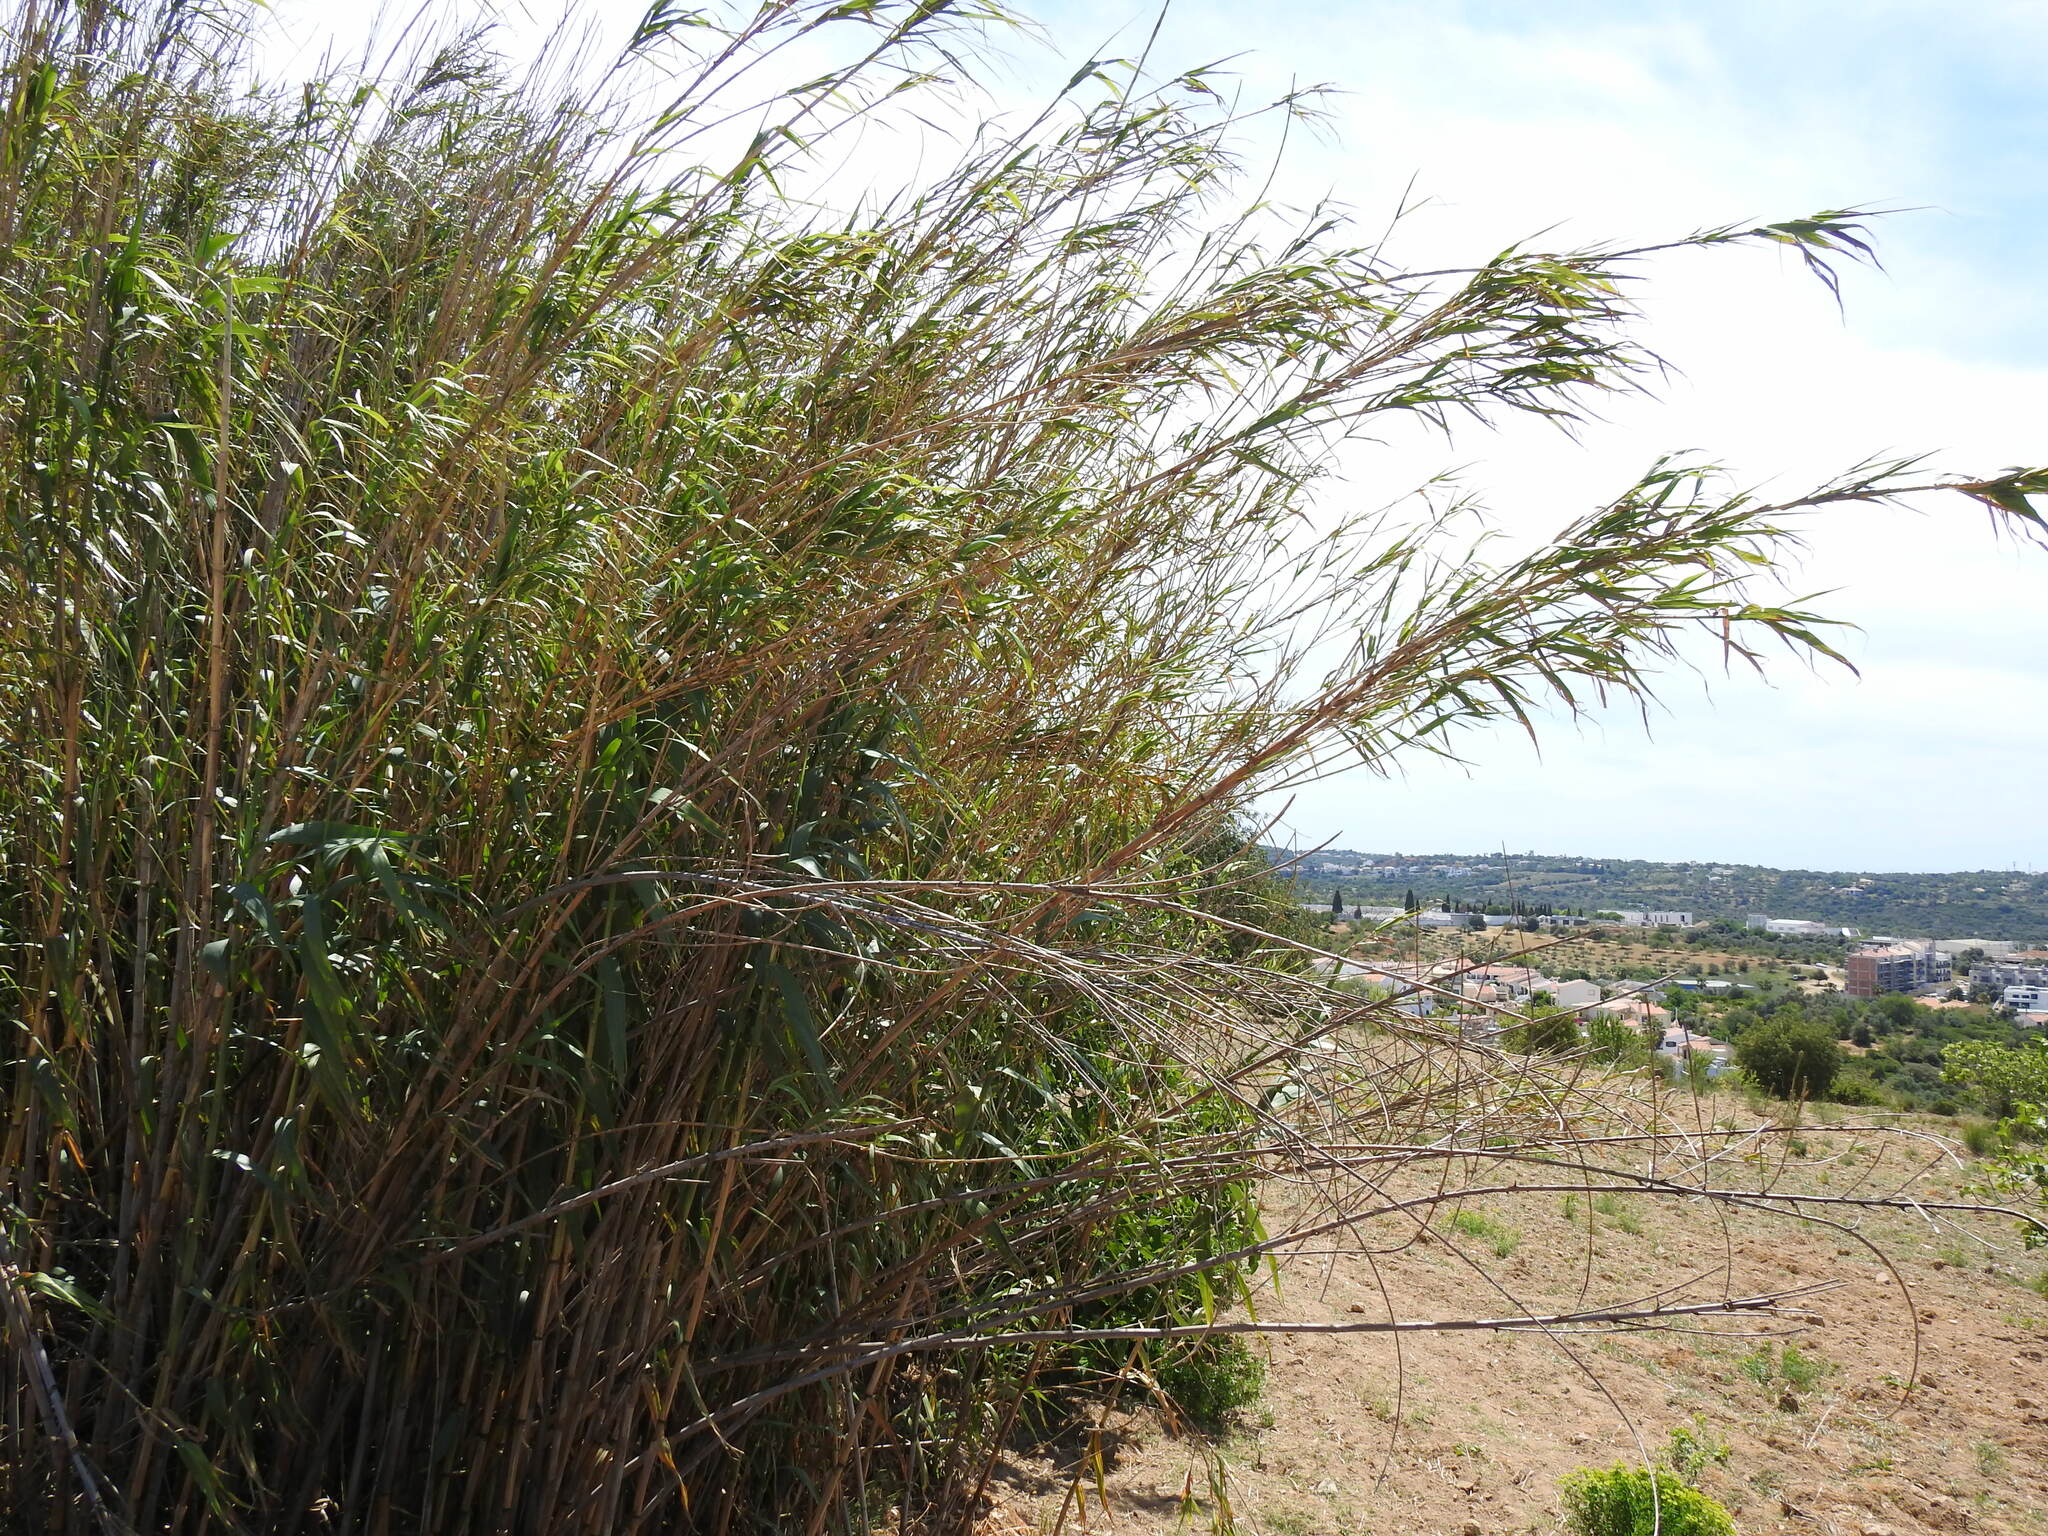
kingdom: Plantae
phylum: Tracheophyta
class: Liliopsida
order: Poales
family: Poaceae
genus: Arundo
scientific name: Arundo donax
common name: Giant reed
